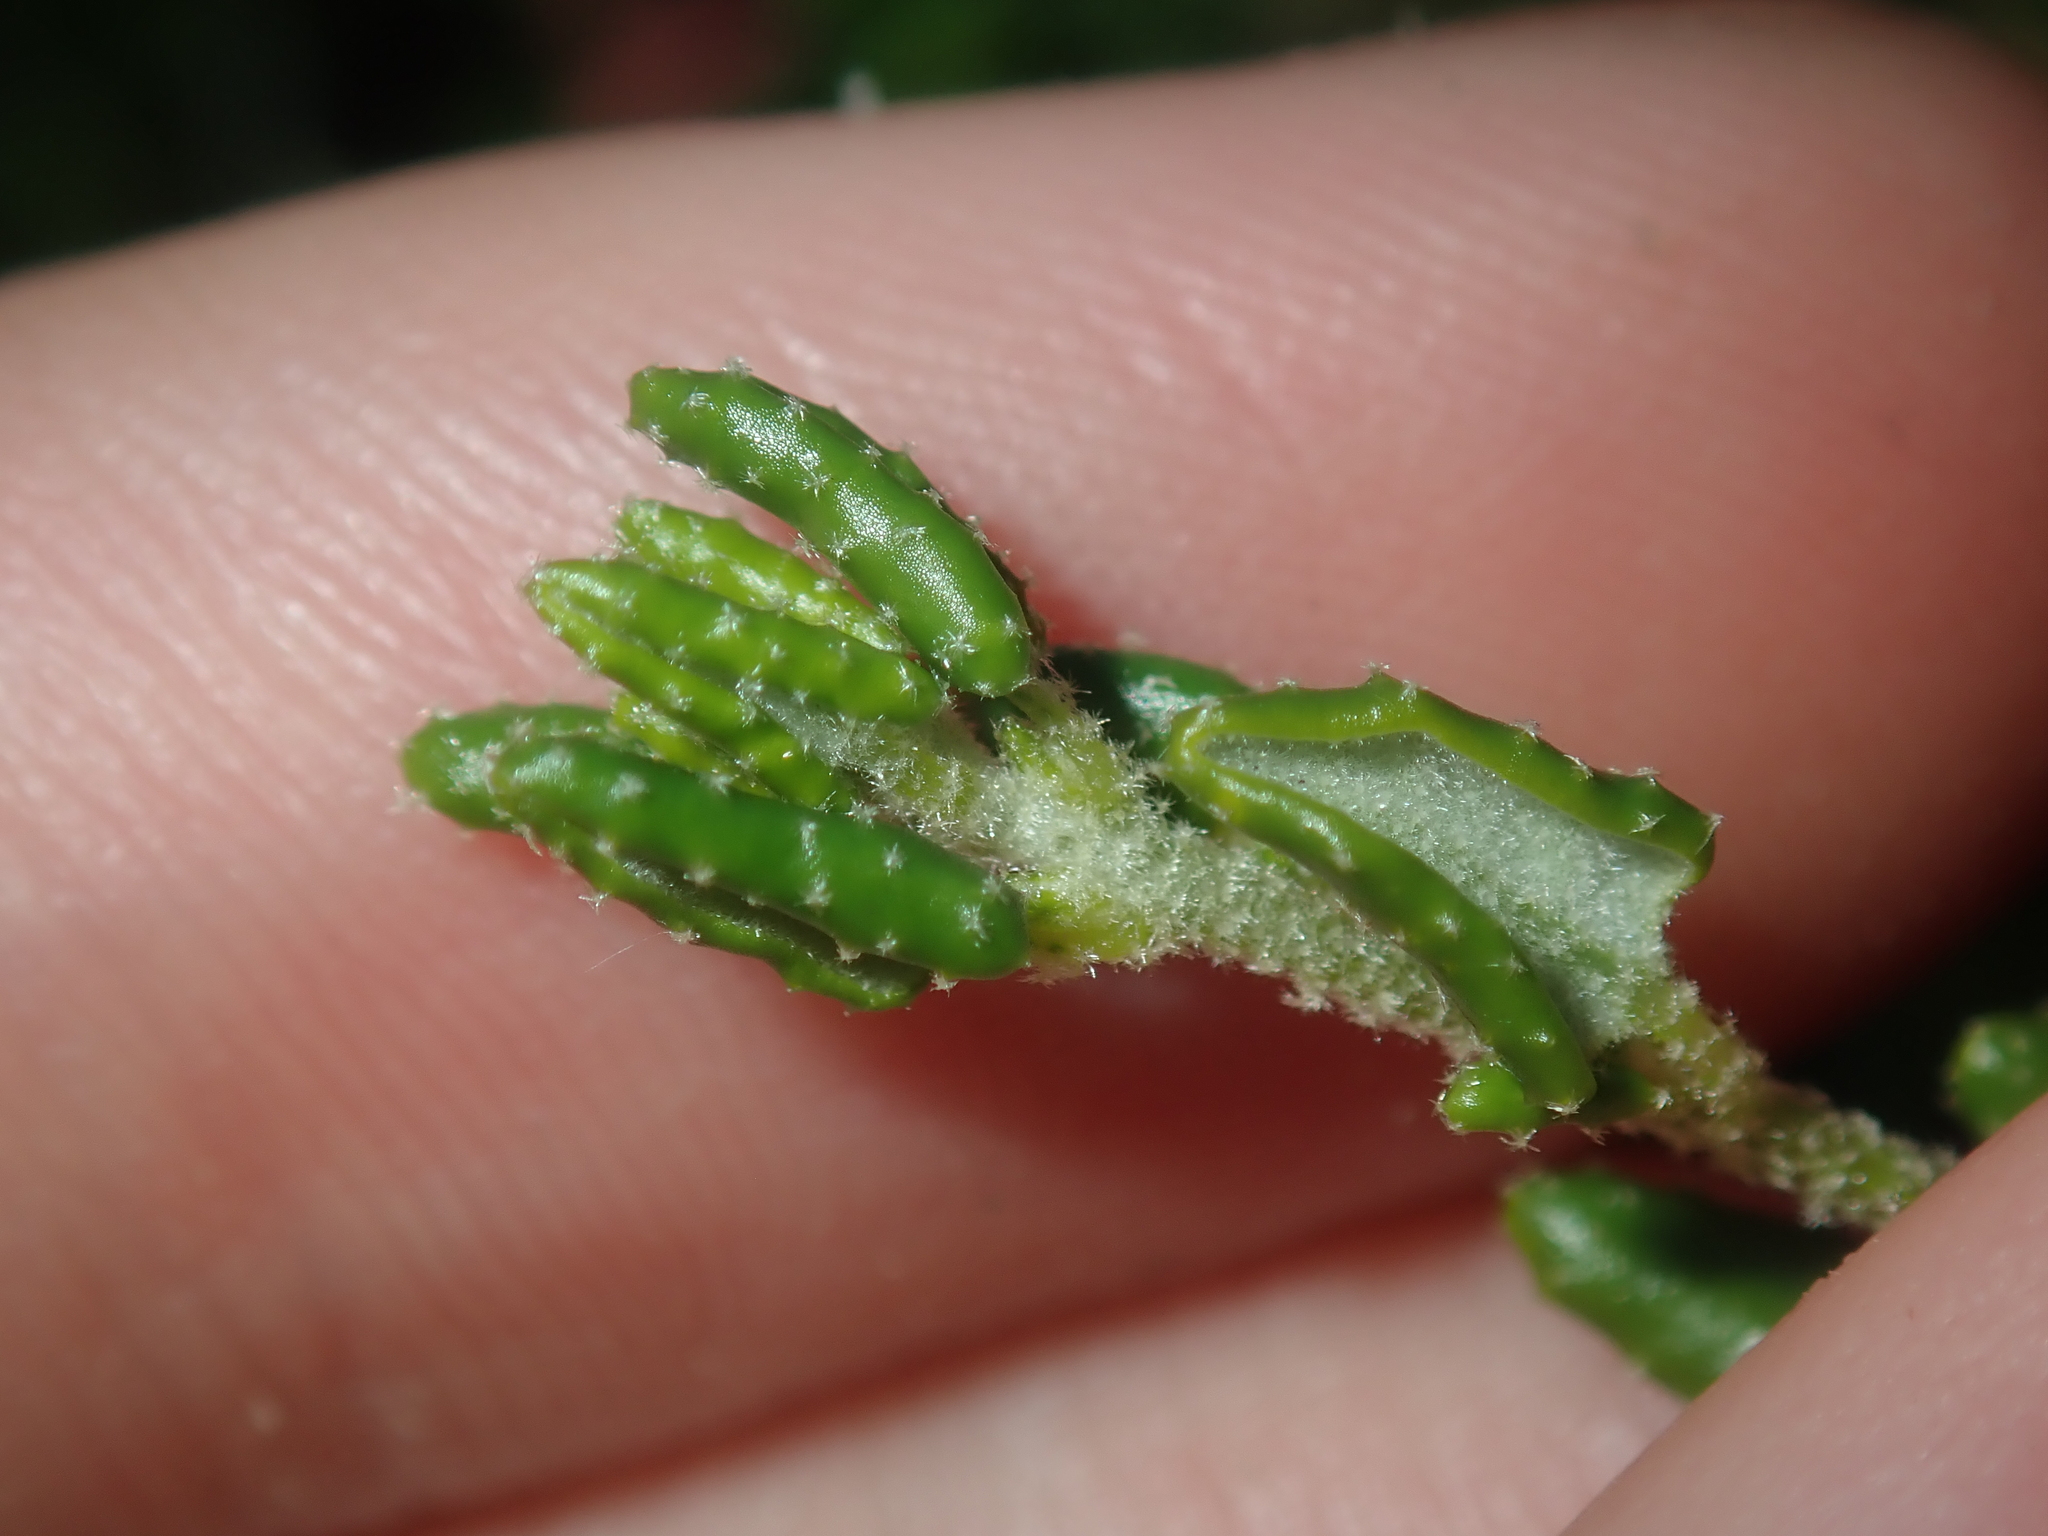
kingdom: Plantae
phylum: Tracheophyta
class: Magnoliopsida
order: Malpighiales
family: Euphorbiaceae
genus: Beyeria
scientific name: Beyeria cinerea
